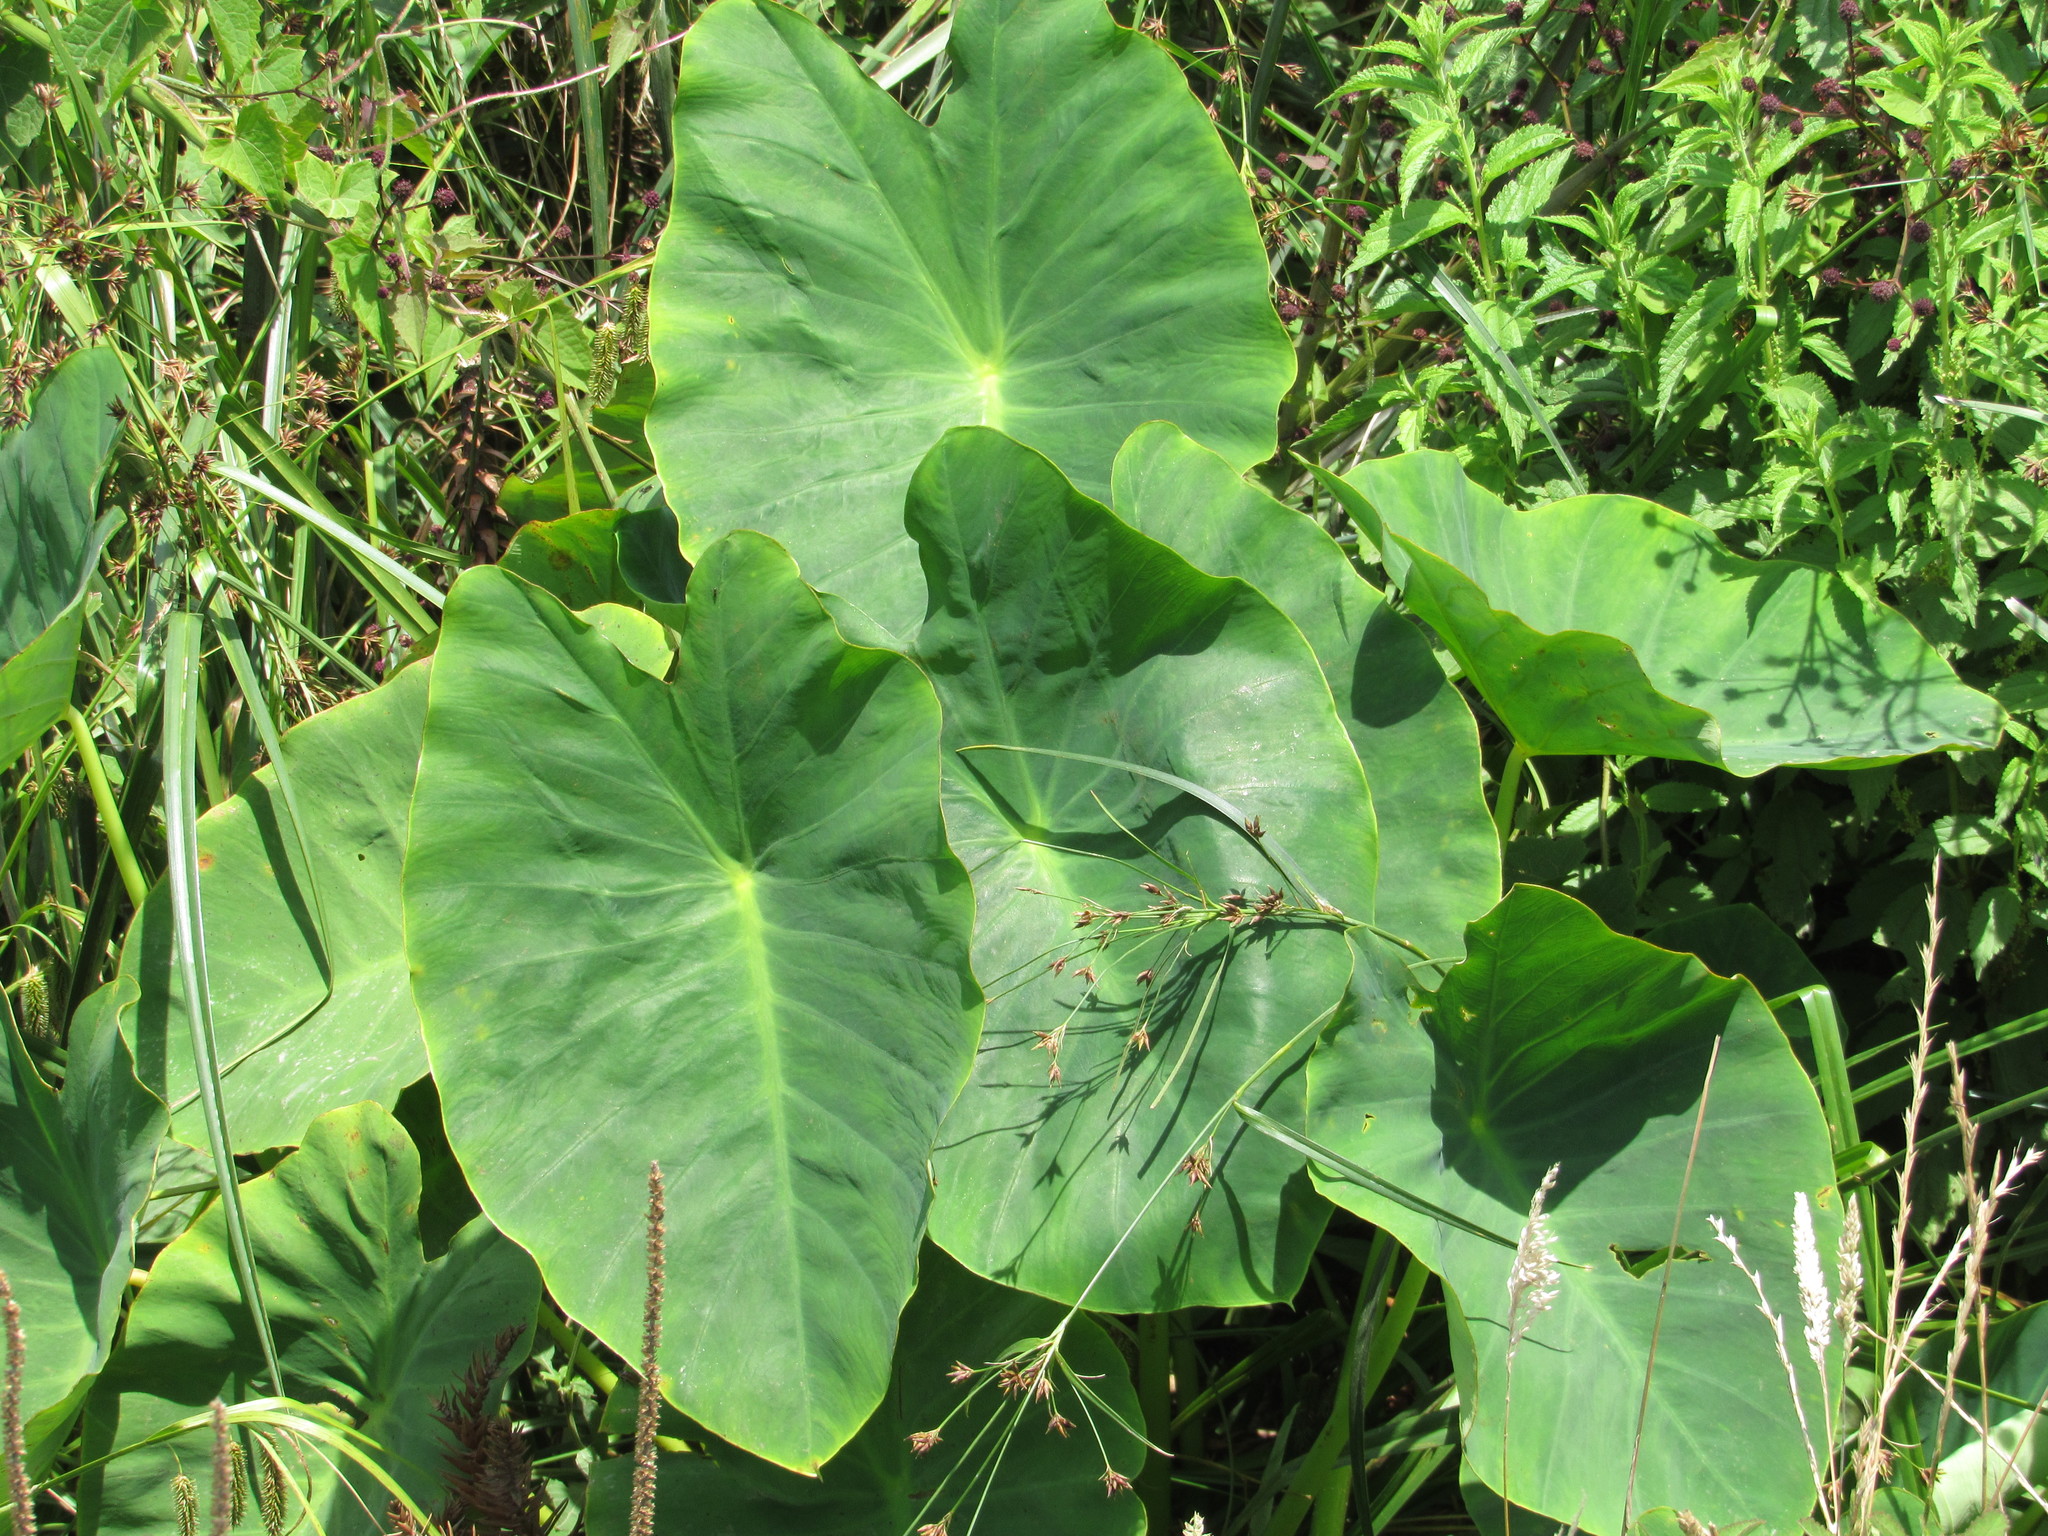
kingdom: Plantae
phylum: Tracheophyta
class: Liliopsida
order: Alismatales
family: Araceae
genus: Colocasia
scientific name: Colocasia esculenta
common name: Taro
